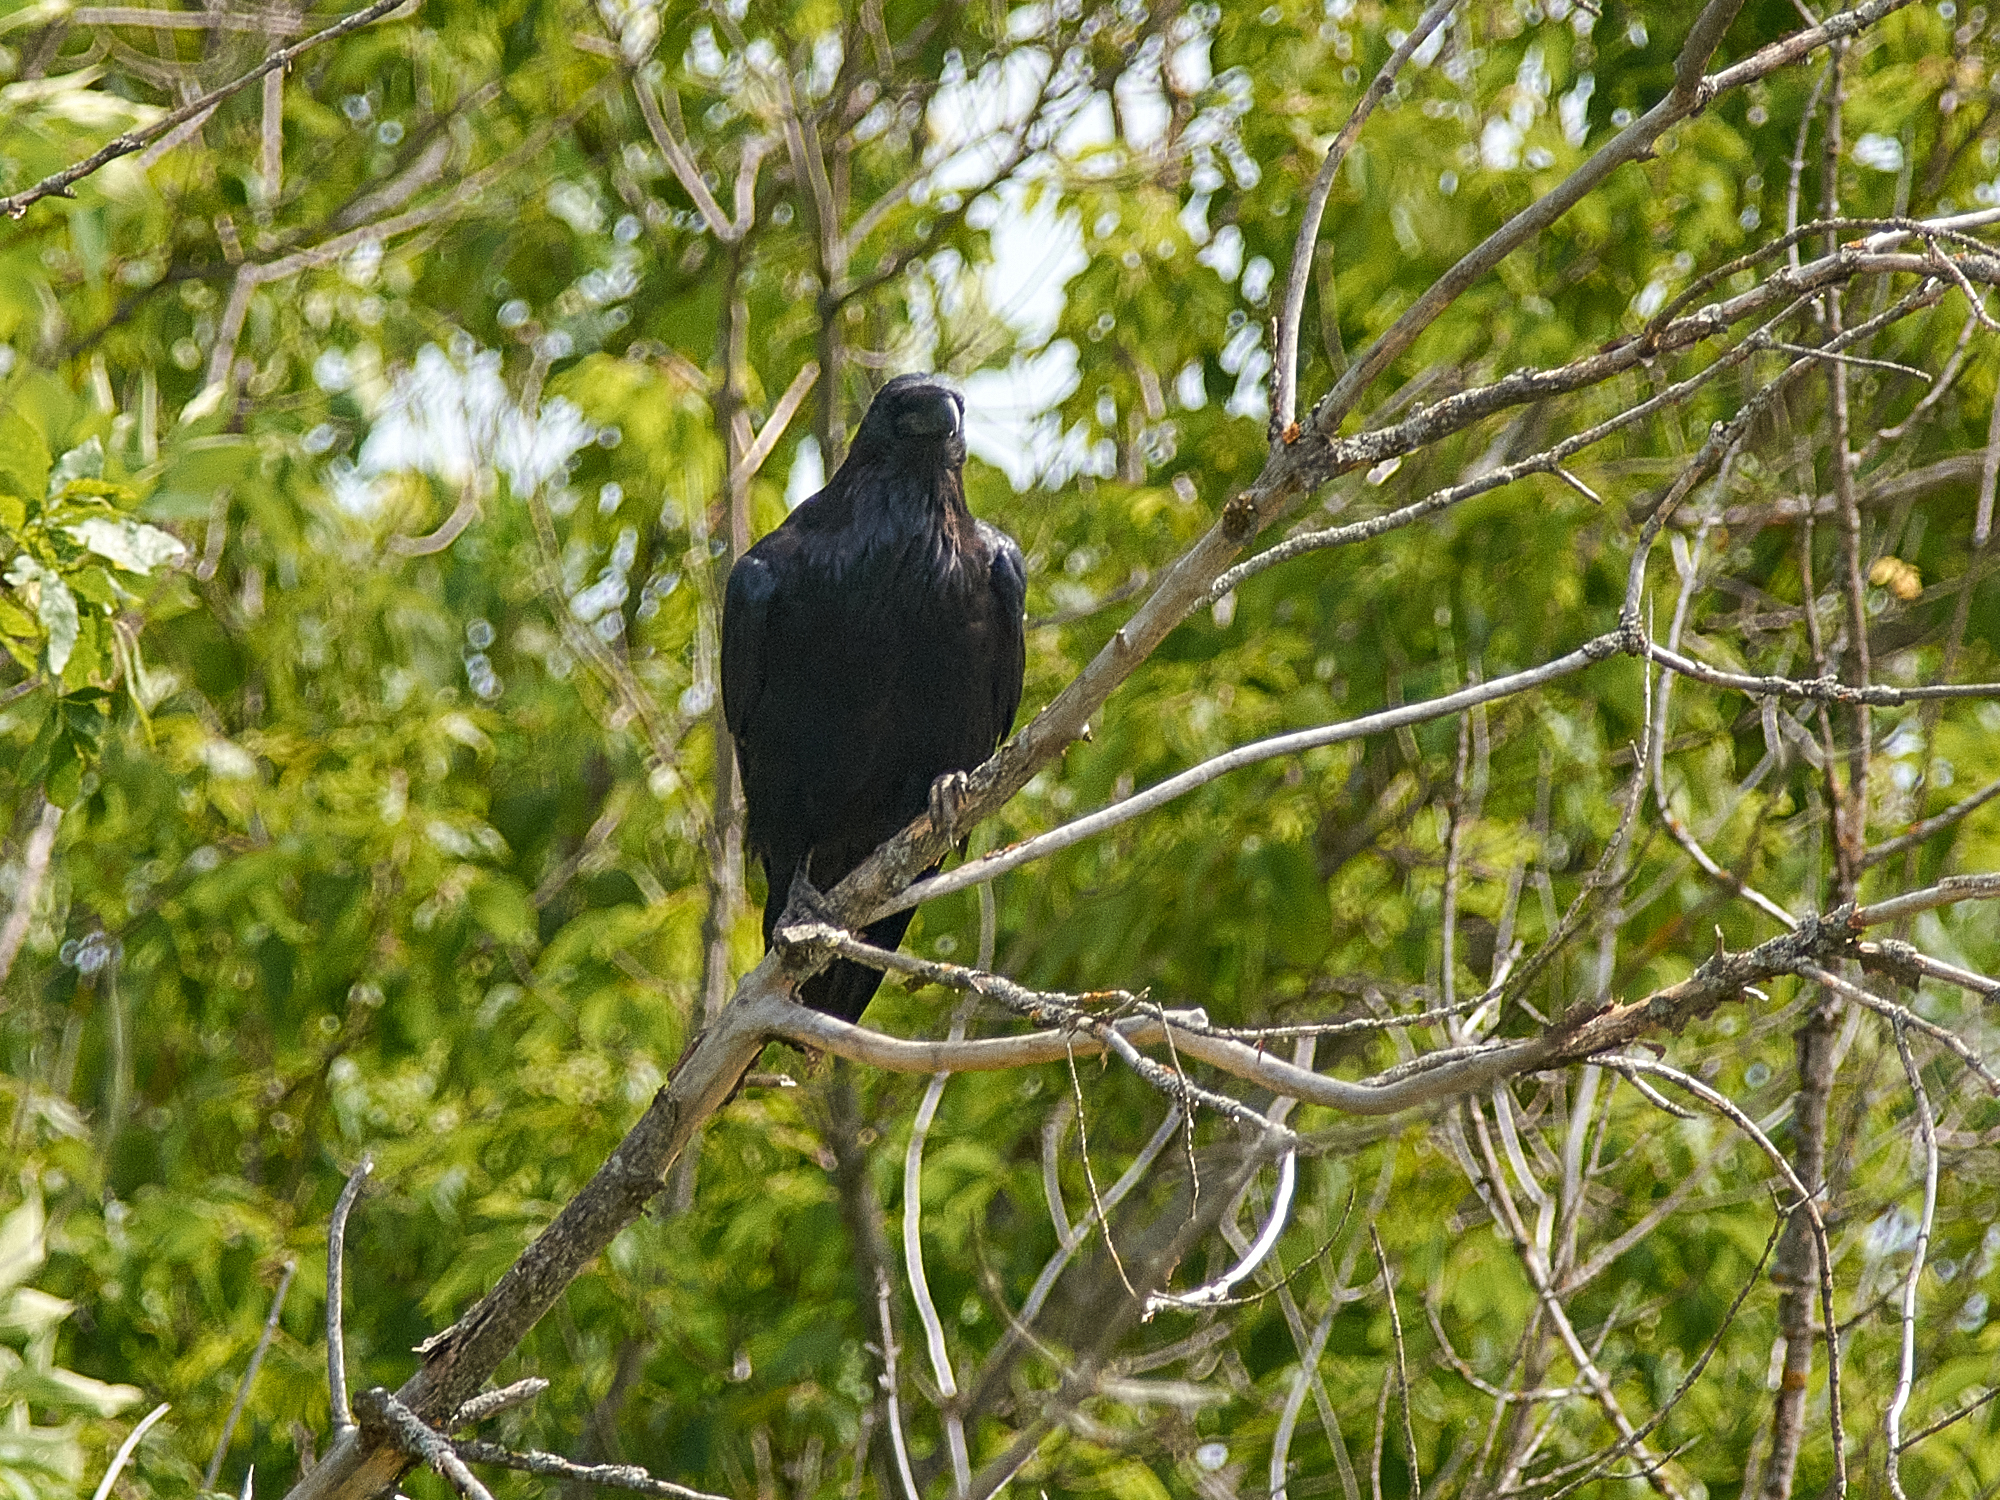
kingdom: Animalia
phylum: Chordata
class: Aves
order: Passeriformes
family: Corvidae
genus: Corvus
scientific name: Corvus corax
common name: Common raven
